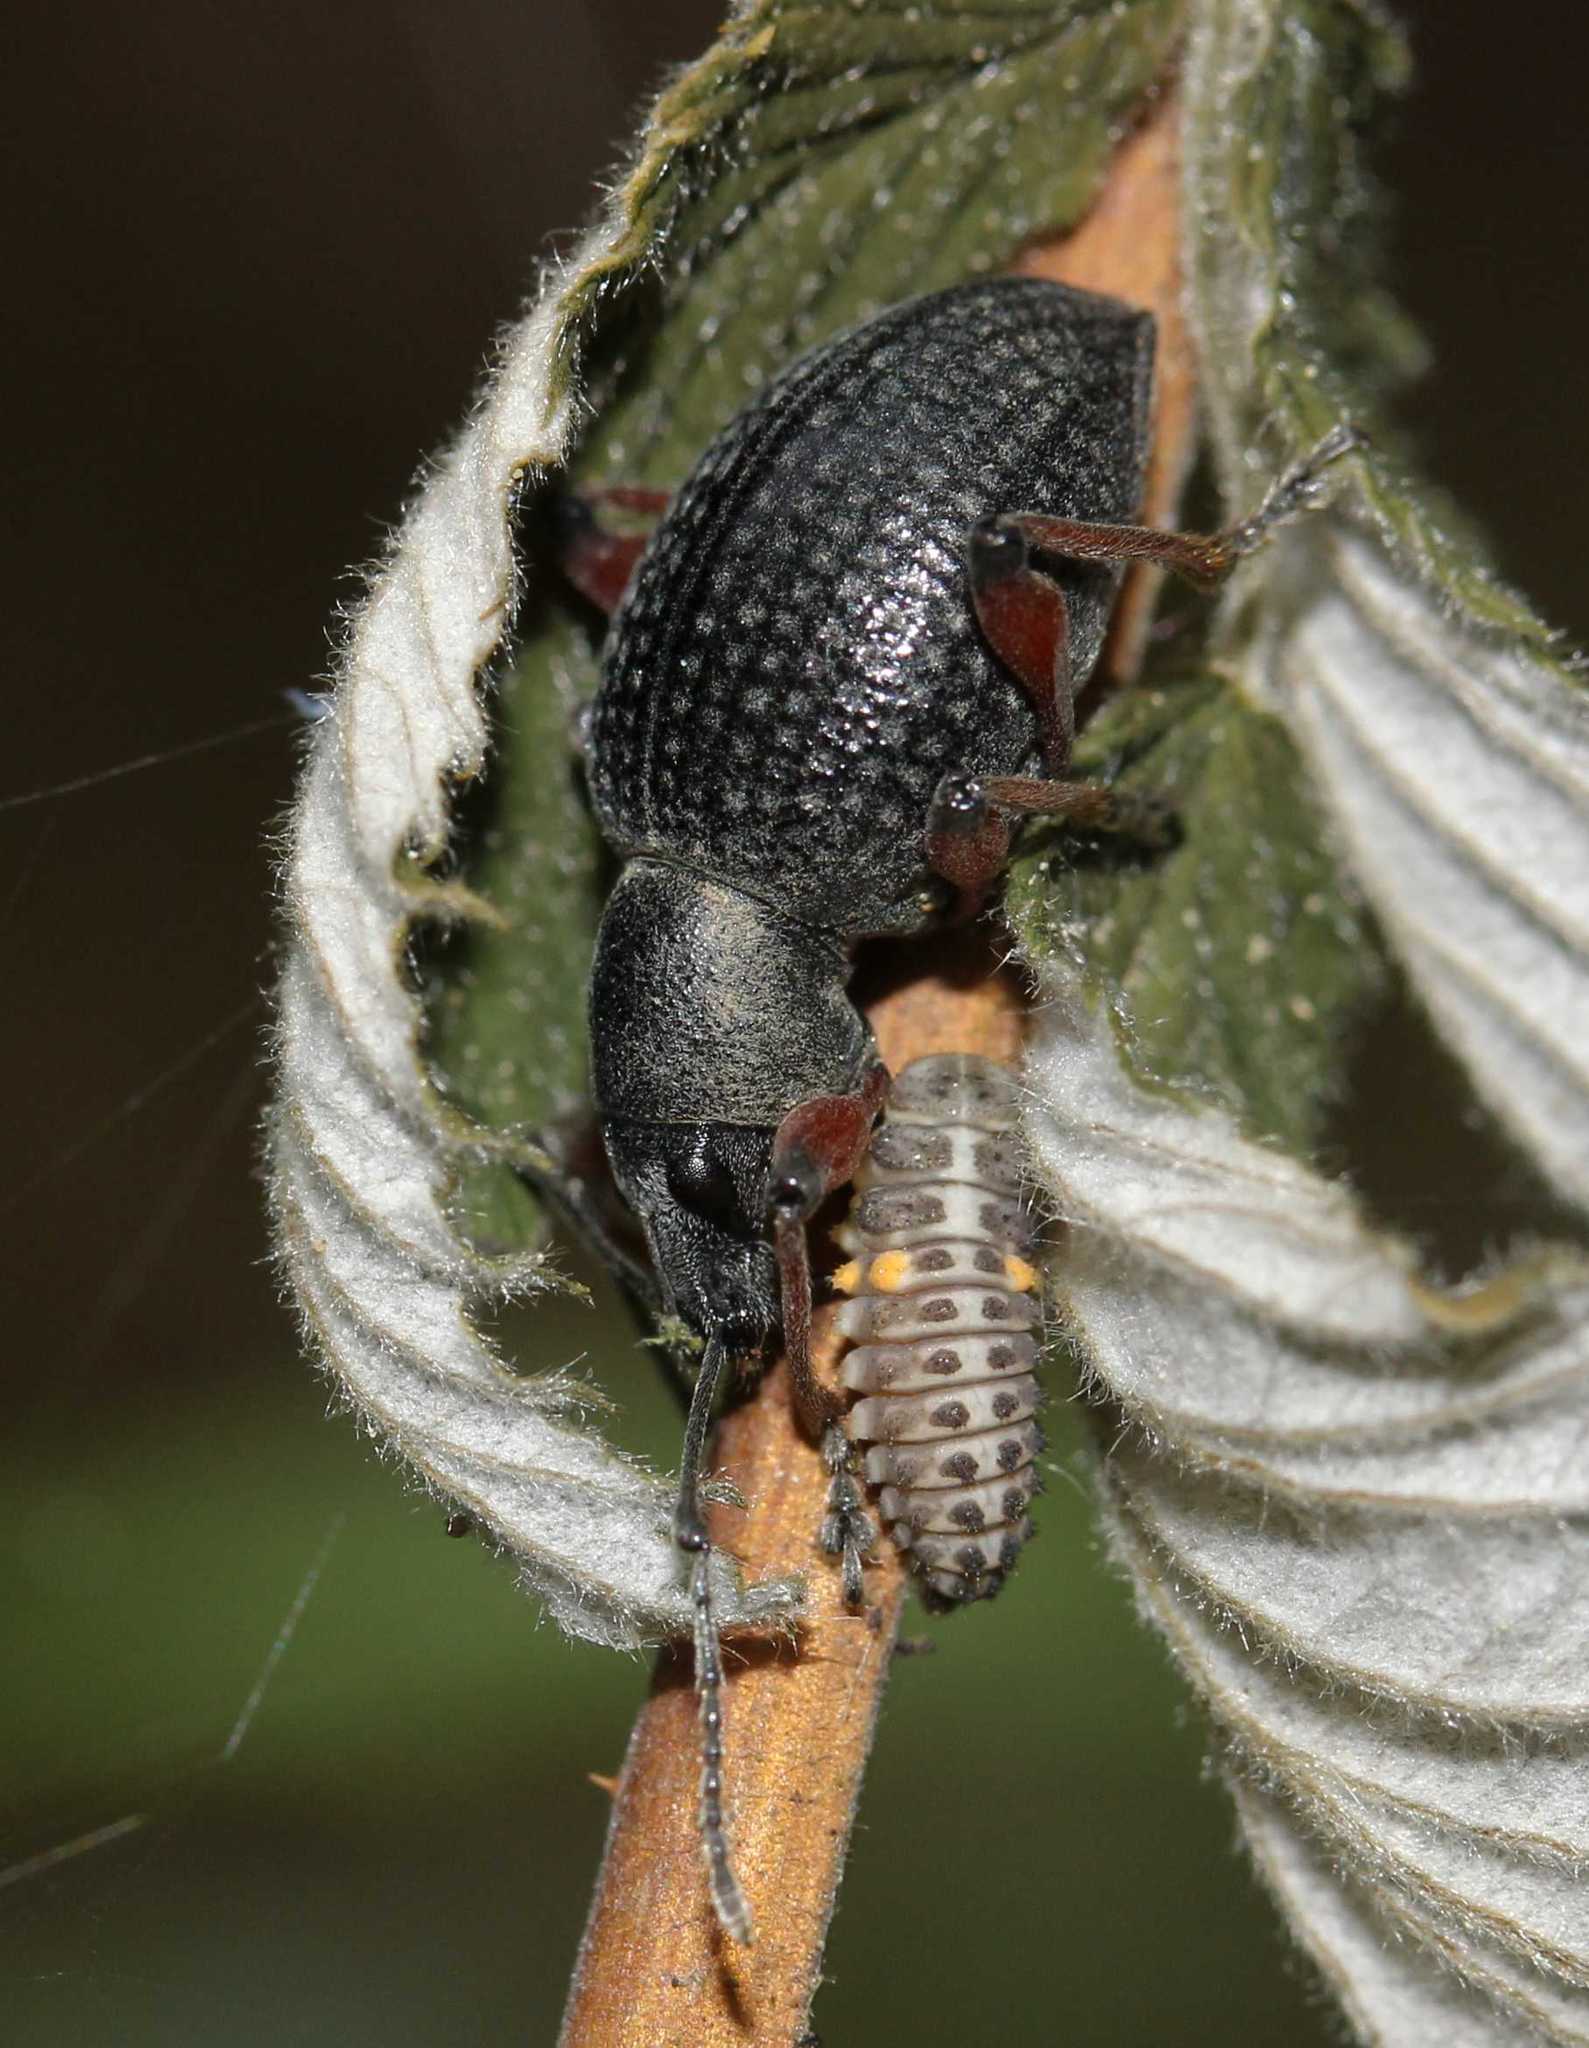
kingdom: Animalia
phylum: Arthropoda
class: Insecta
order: Coleoptera
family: Curculionidae
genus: Otiorhynchus
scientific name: Otiorhynchus coecus
